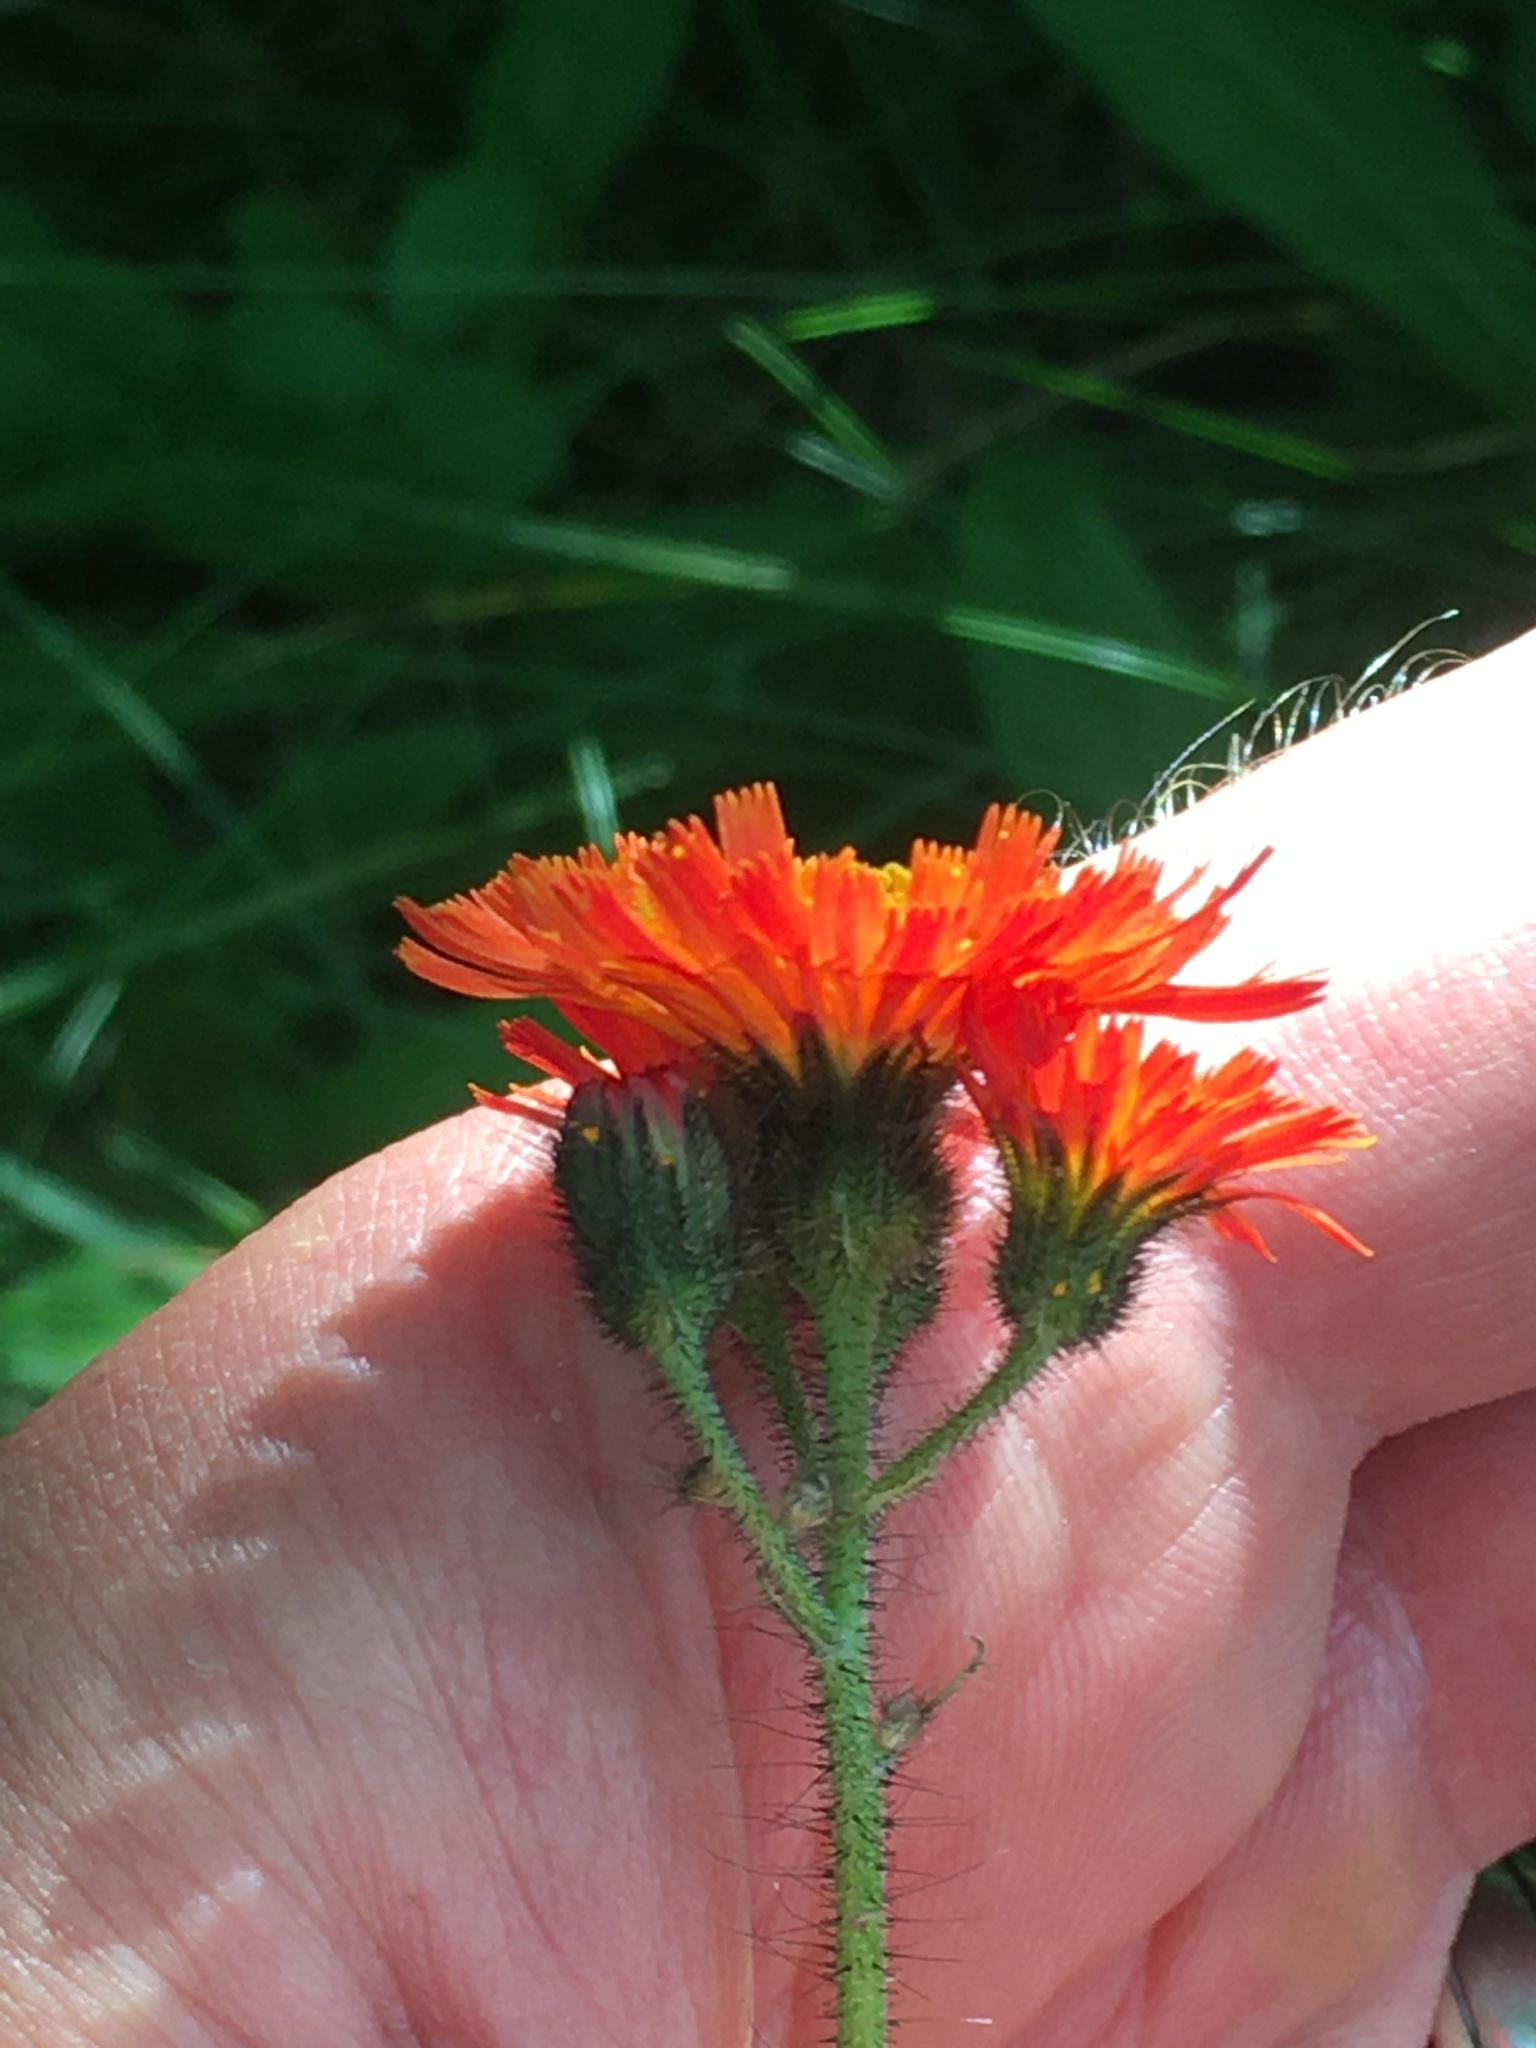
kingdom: Plantae
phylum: Tracheophyta
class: Magnoliopsida
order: Asterales
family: Asteraceae
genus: Pilosella
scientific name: Pilosella aurantiaca
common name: Fox-and-cubs
